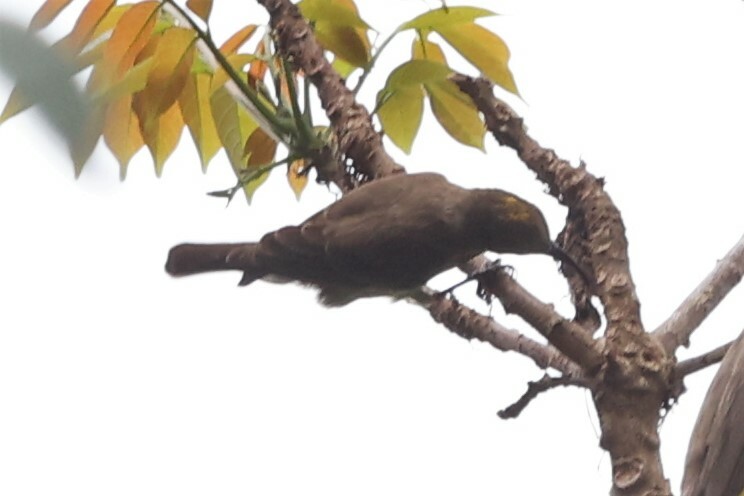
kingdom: Animalia
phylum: Chordata
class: Aves
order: Passeriformes
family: Nectariniidae
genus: Chalcomitra
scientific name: Chalcomitra senegalensis
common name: Scarlet-chested sunbird
